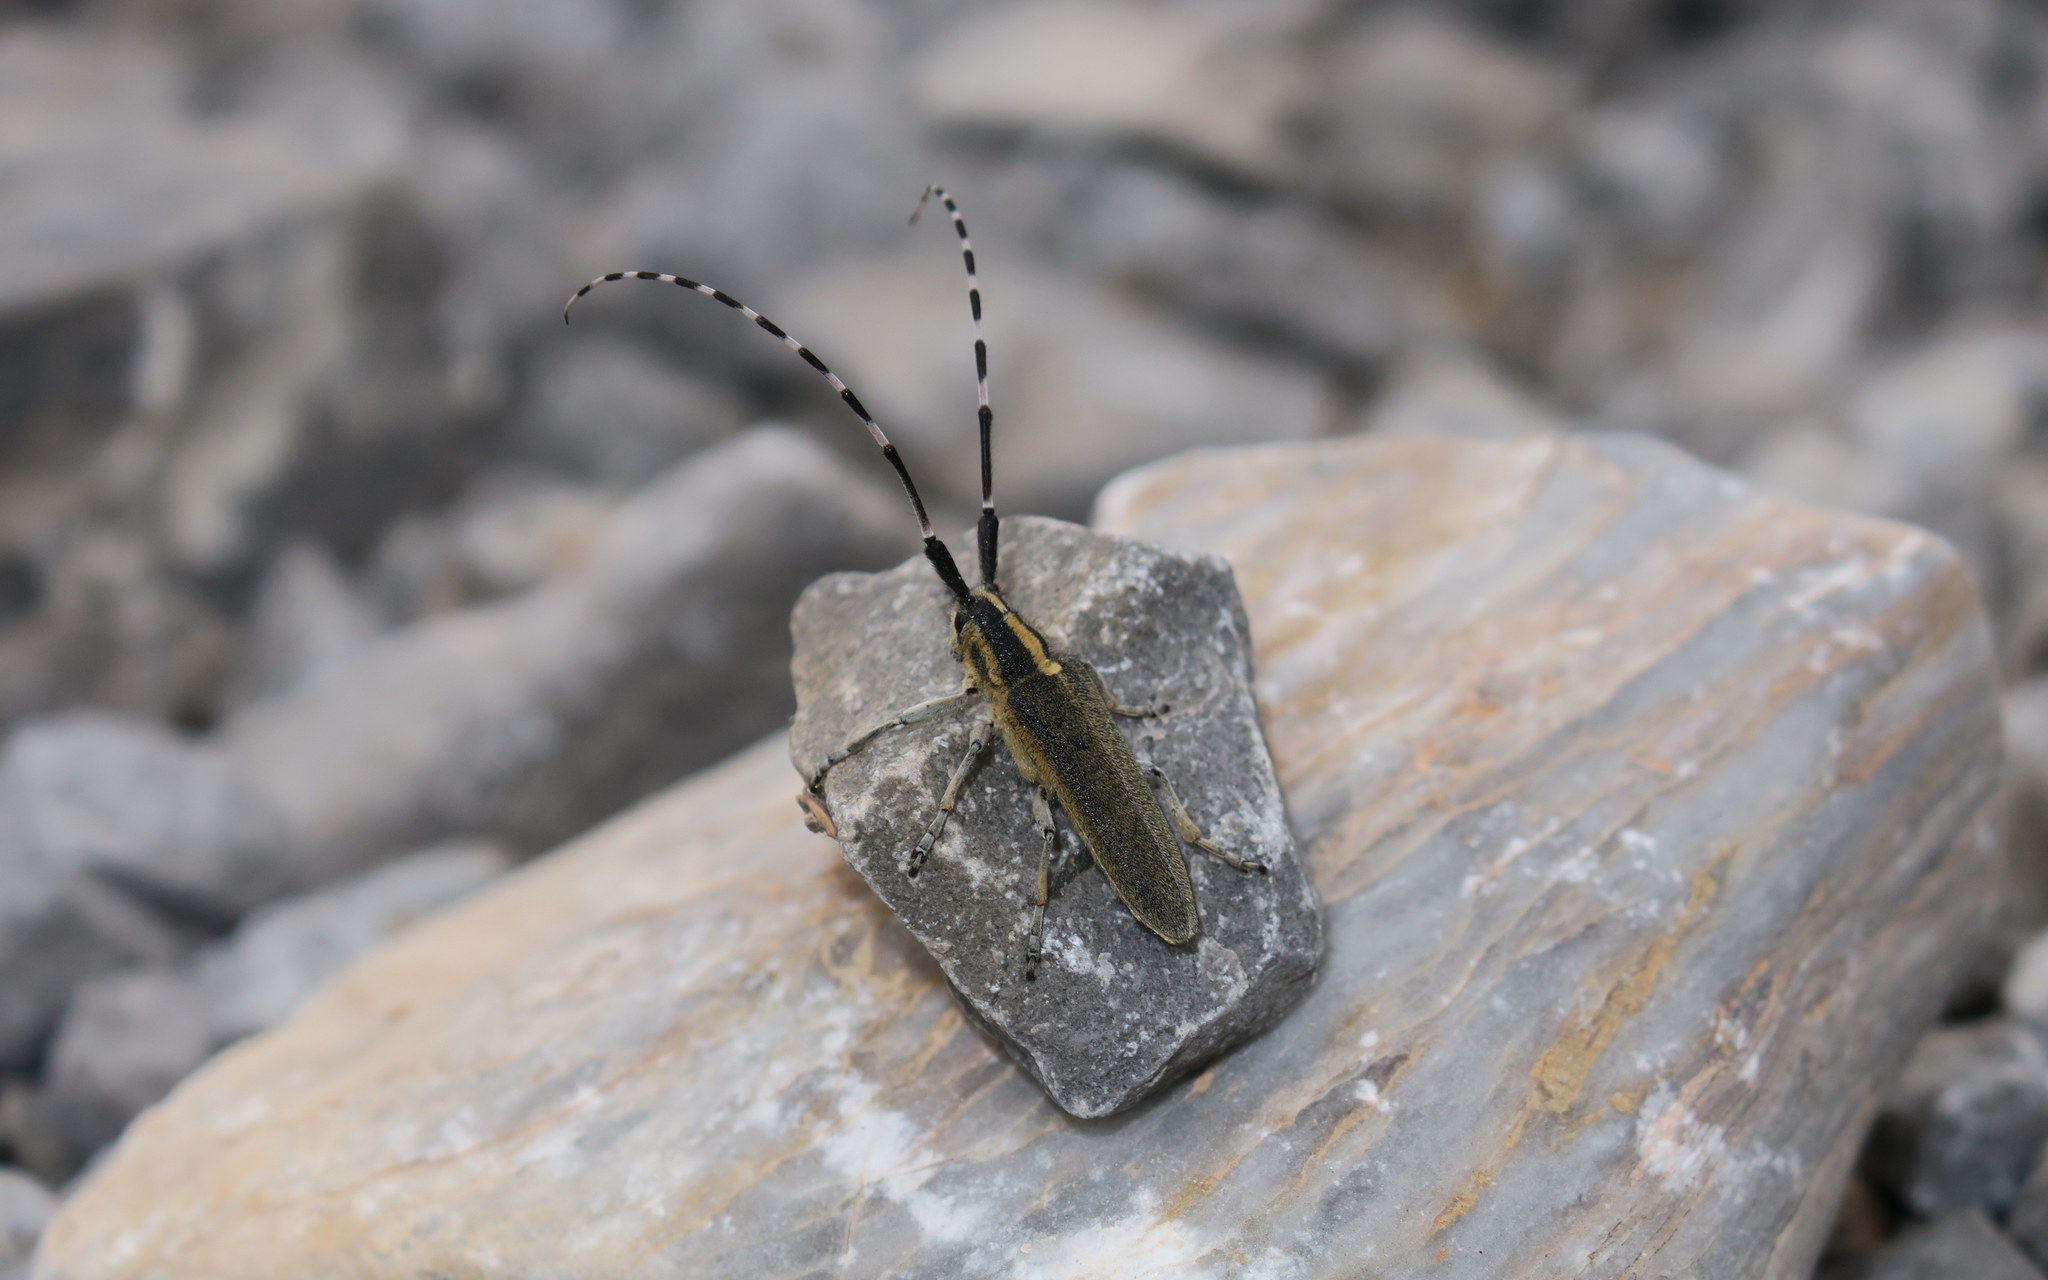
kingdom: Animalia
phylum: Arthropoda
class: Insecta
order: Coleoptera
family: Cerambycidae
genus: Agapanthia
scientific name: Agapanthia cynarae
